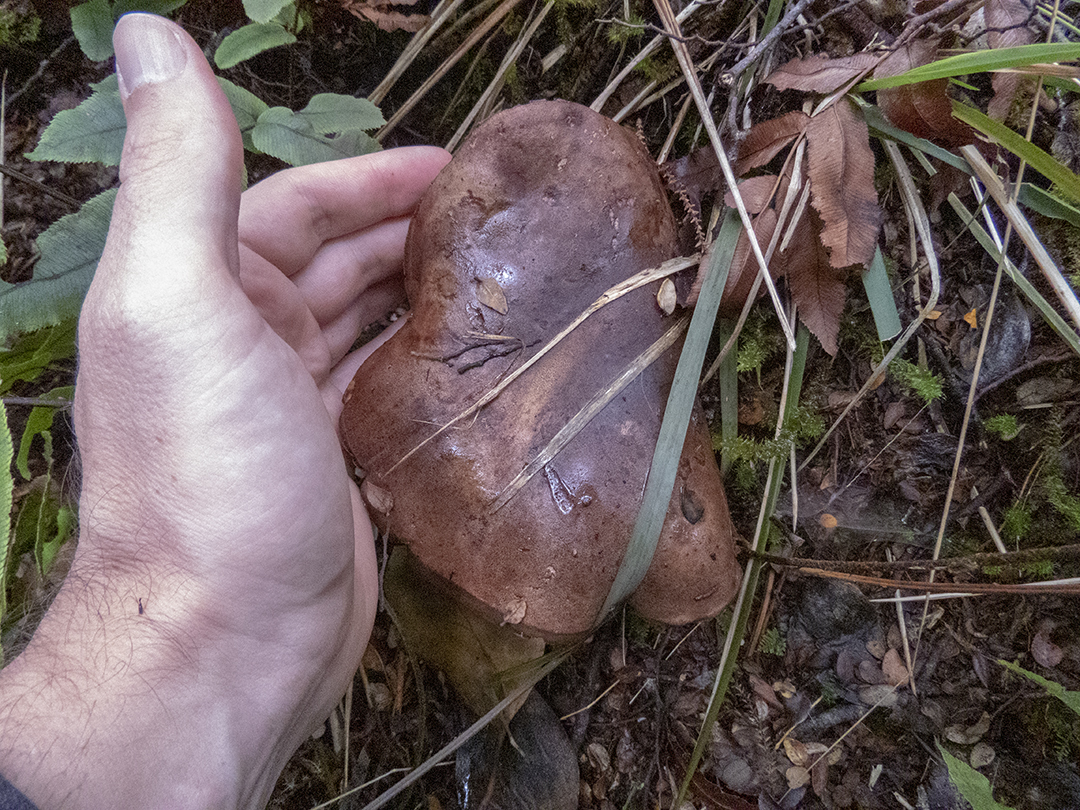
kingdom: Fungi
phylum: Basidiomycota
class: Agaricomycetes
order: Boletales
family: Boletaceae
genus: Porphyrellus
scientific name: Porphyrellus formosus
